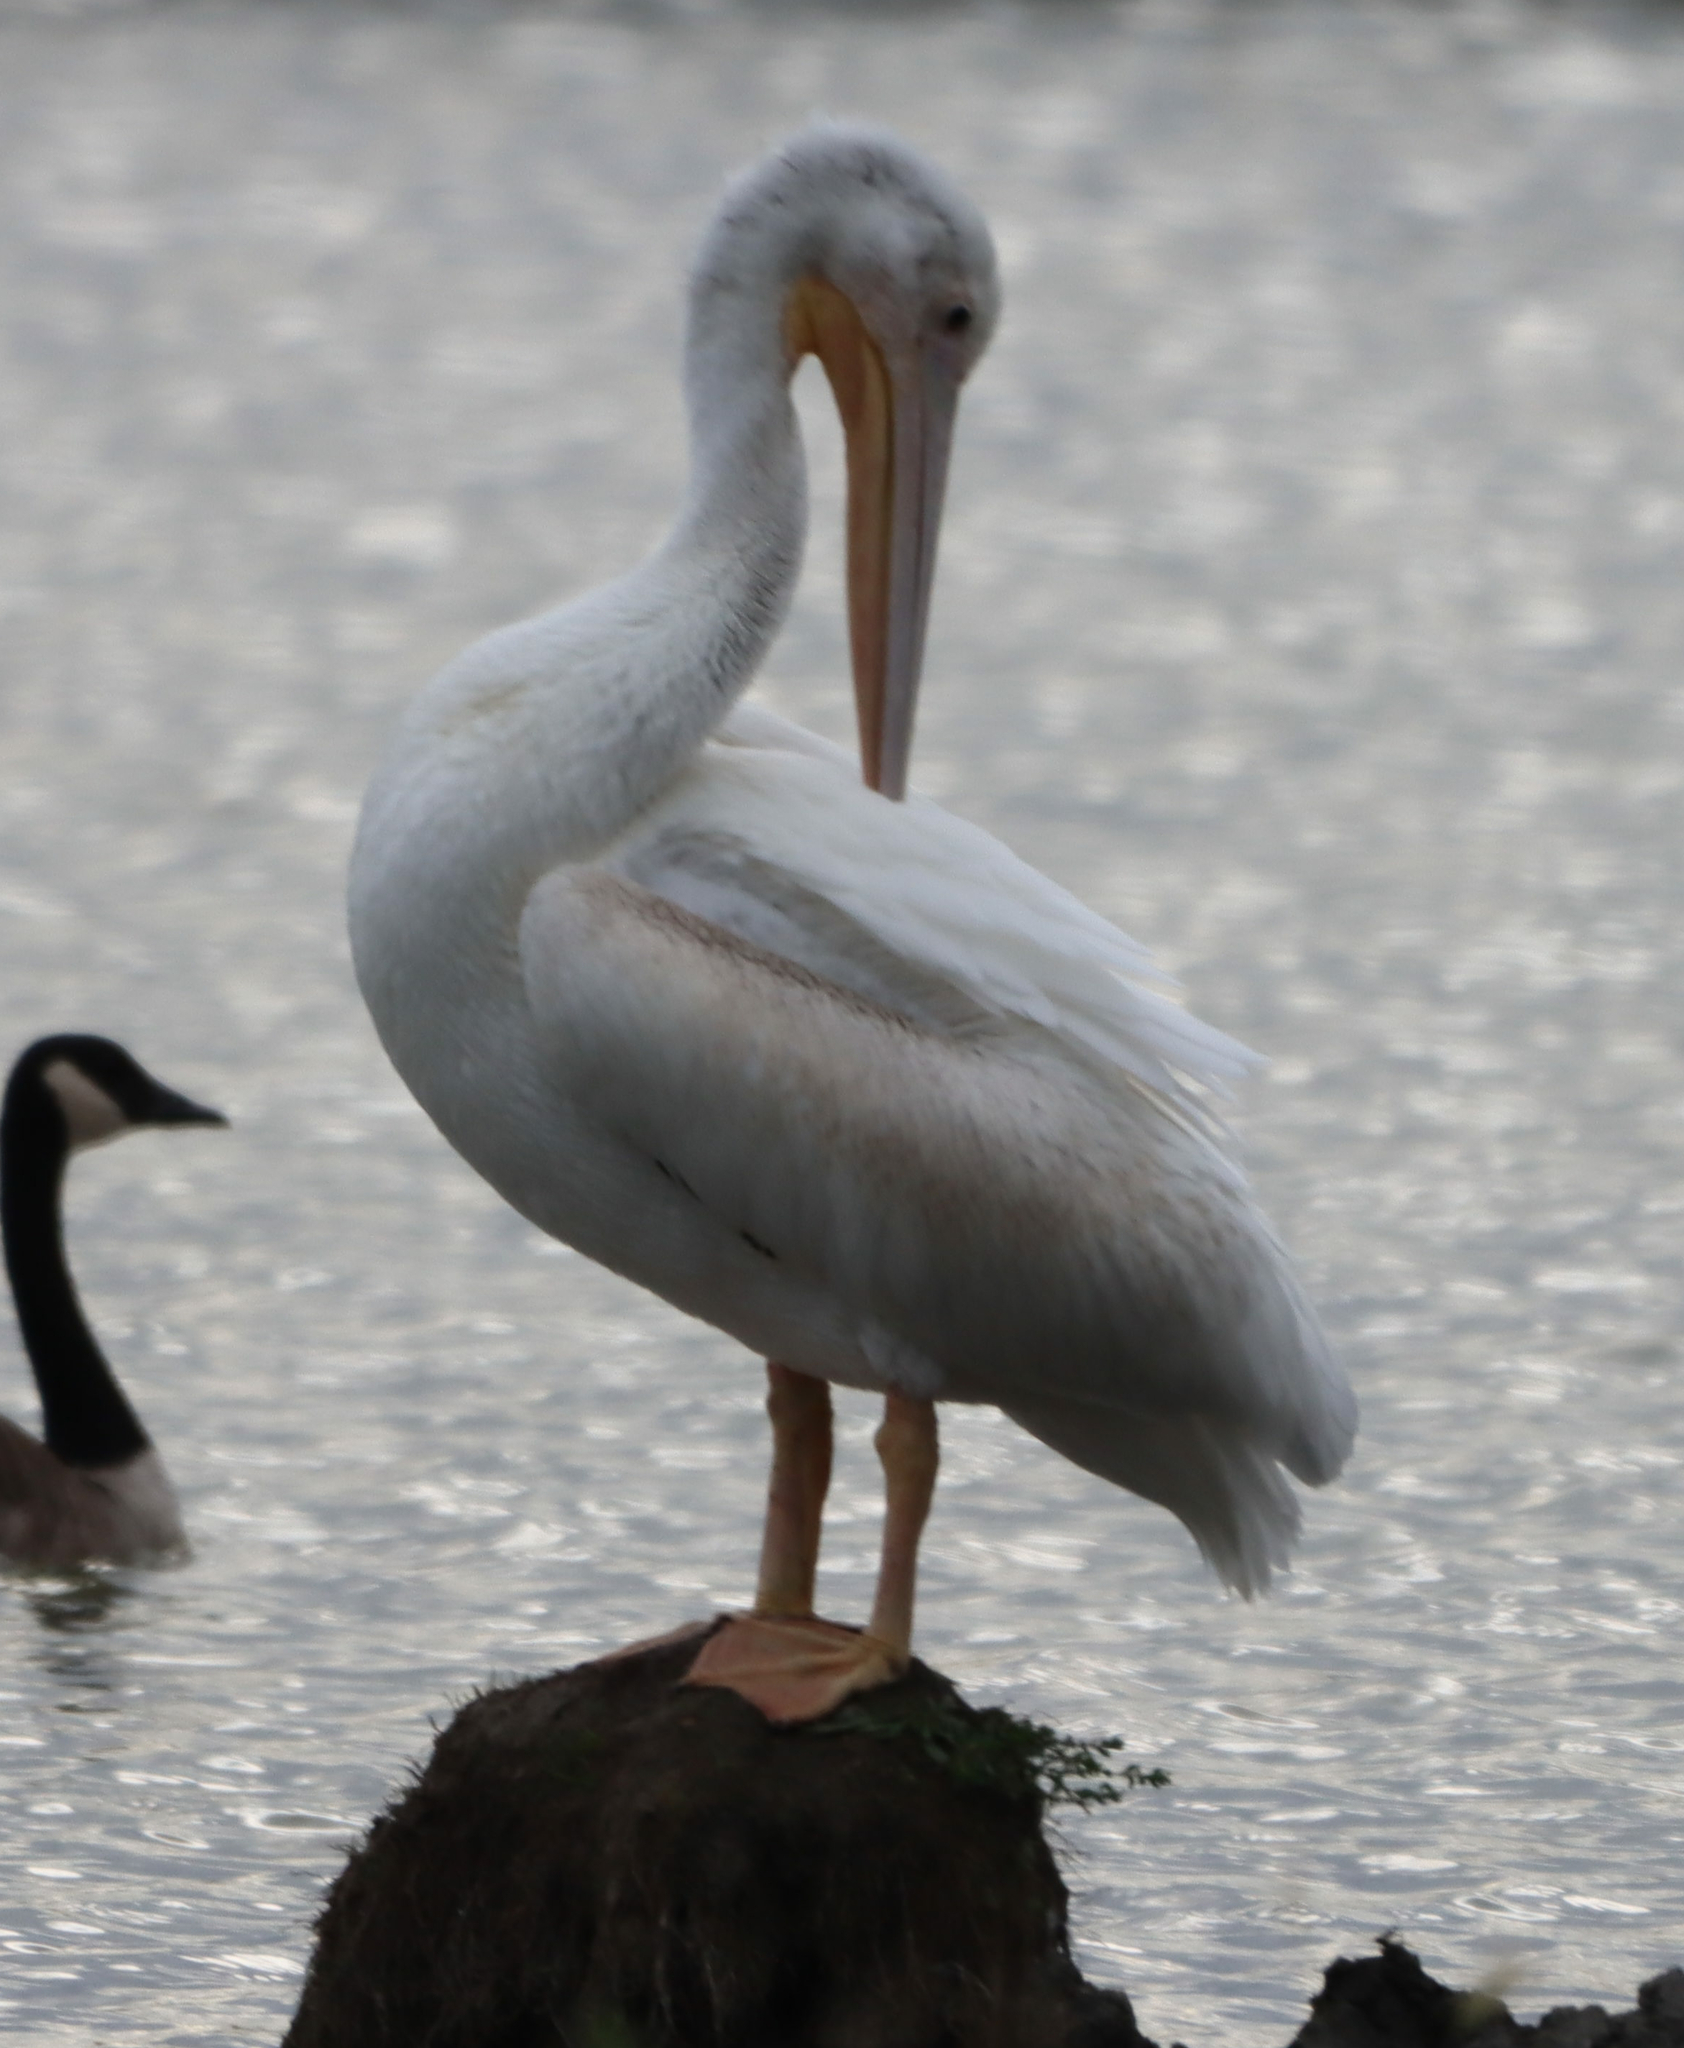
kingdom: Animalia
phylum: Chordata
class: Aves
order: Pelecaniformes
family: Pelecanidae
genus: Pelecanus
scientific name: Pelecanus erythrorhynchos
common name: American white pelican
